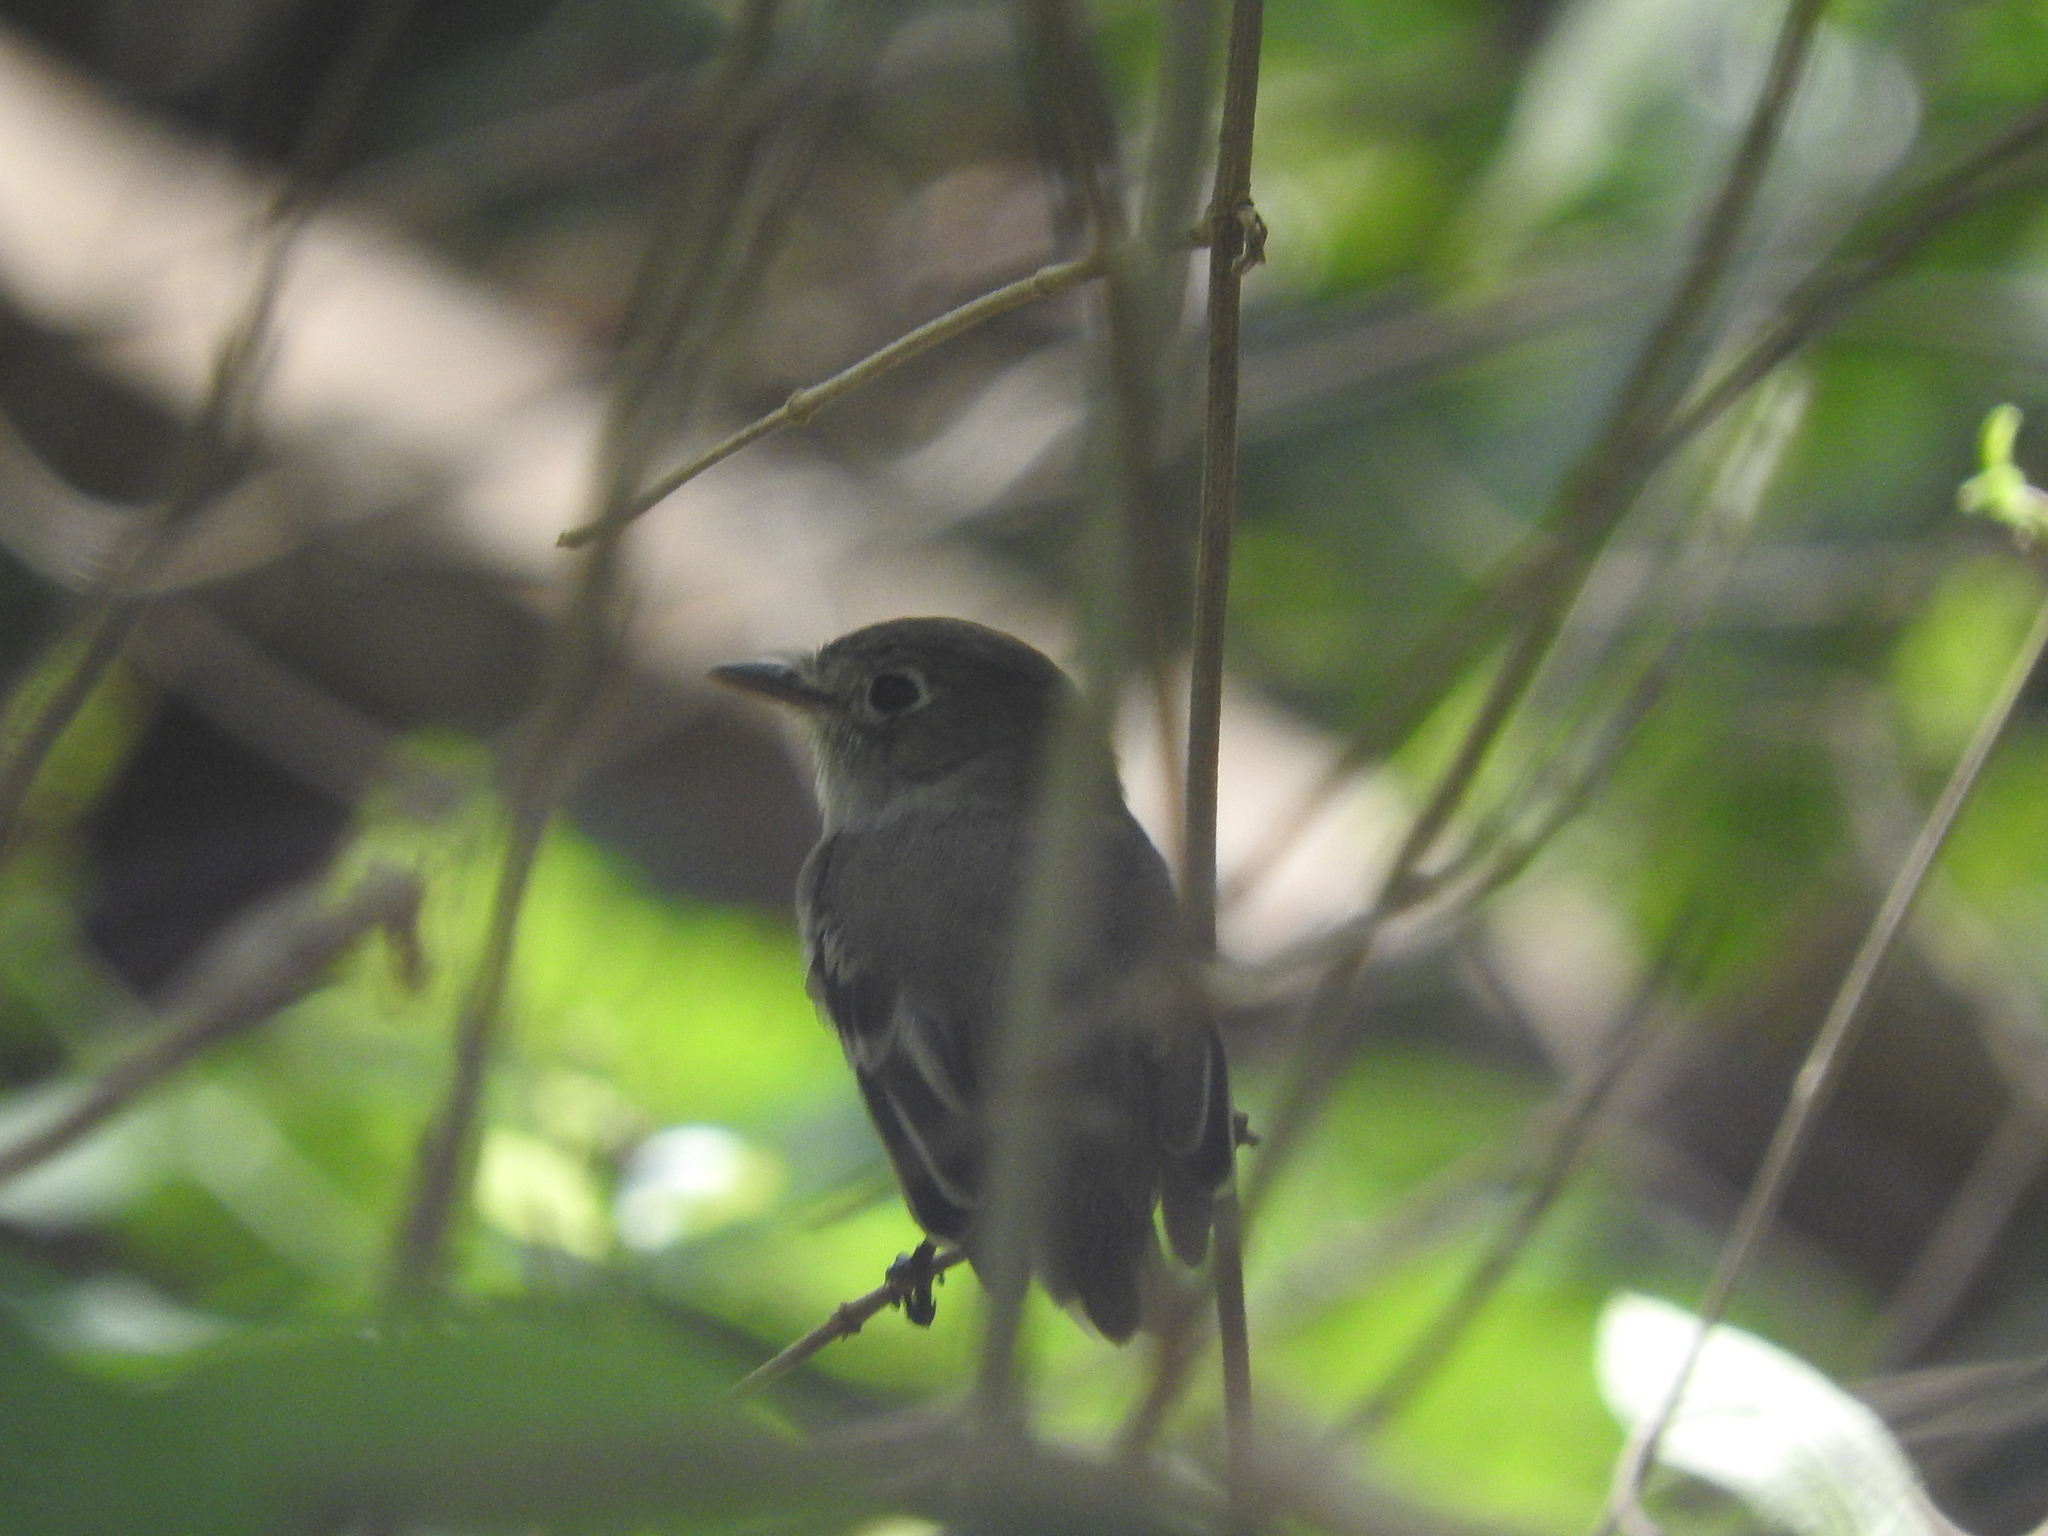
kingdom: Animalia
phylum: Chordata
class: Aves
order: Passeriformes
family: Tyrannidae
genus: Empidonax
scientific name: Empidonax minimus
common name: Least flycatcher
